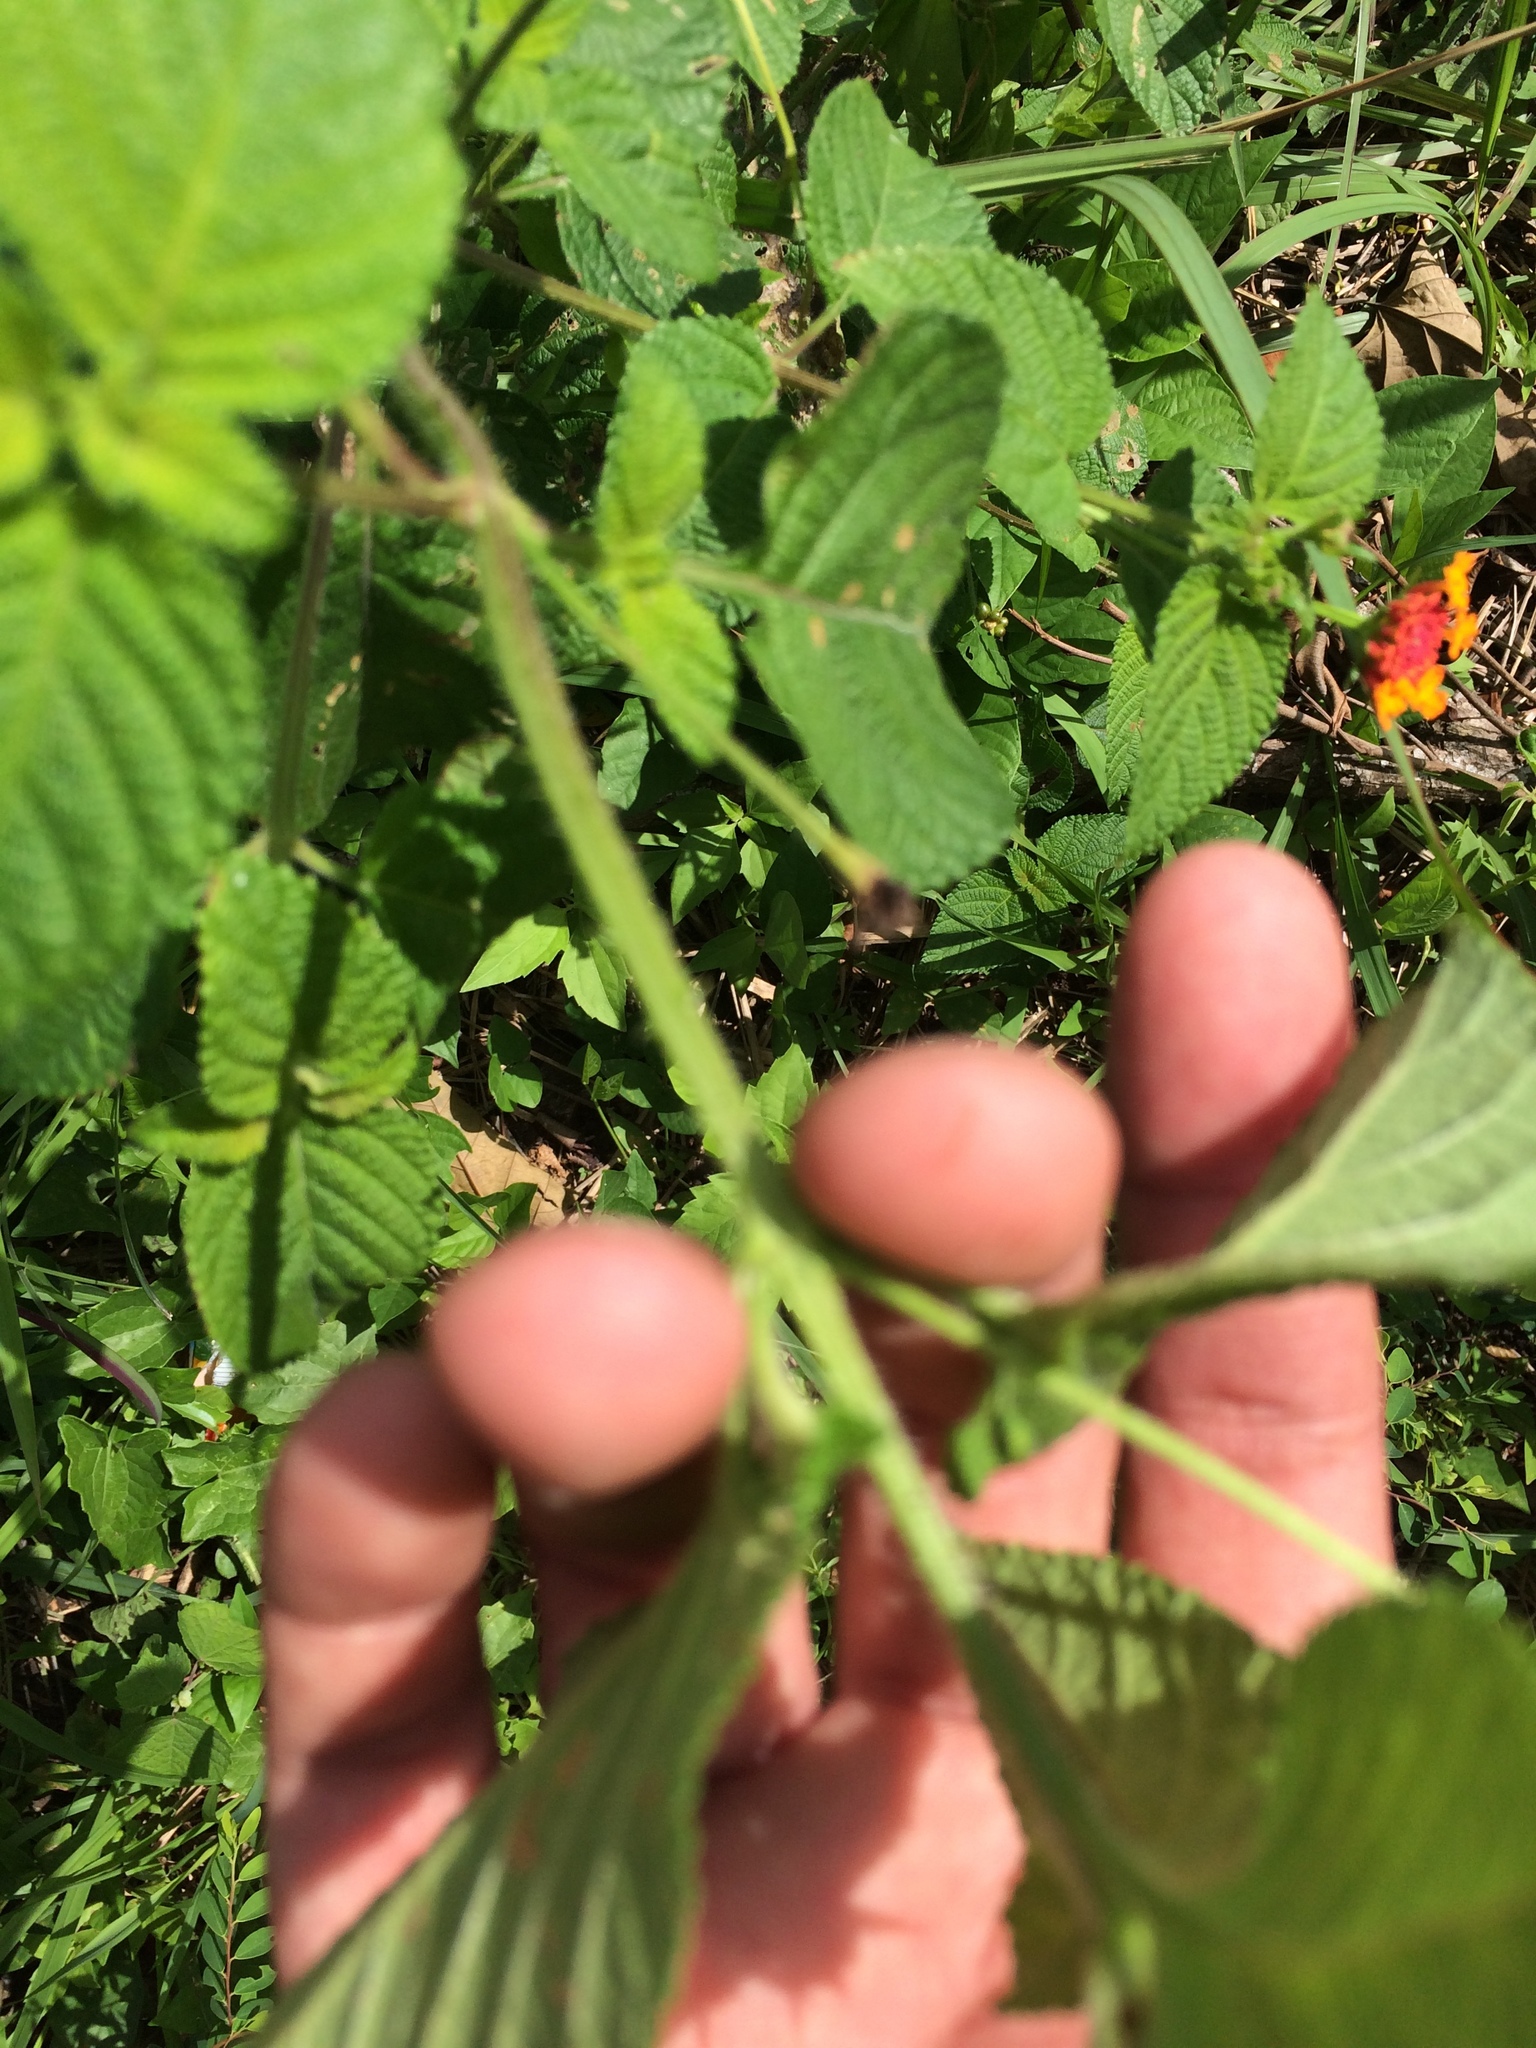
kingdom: Plantae
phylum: Tracheophyta
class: Magnoliopsida
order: Lamiales
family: Verbenaceae
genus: Lantana
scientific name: Lantana camara
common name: Lantana
